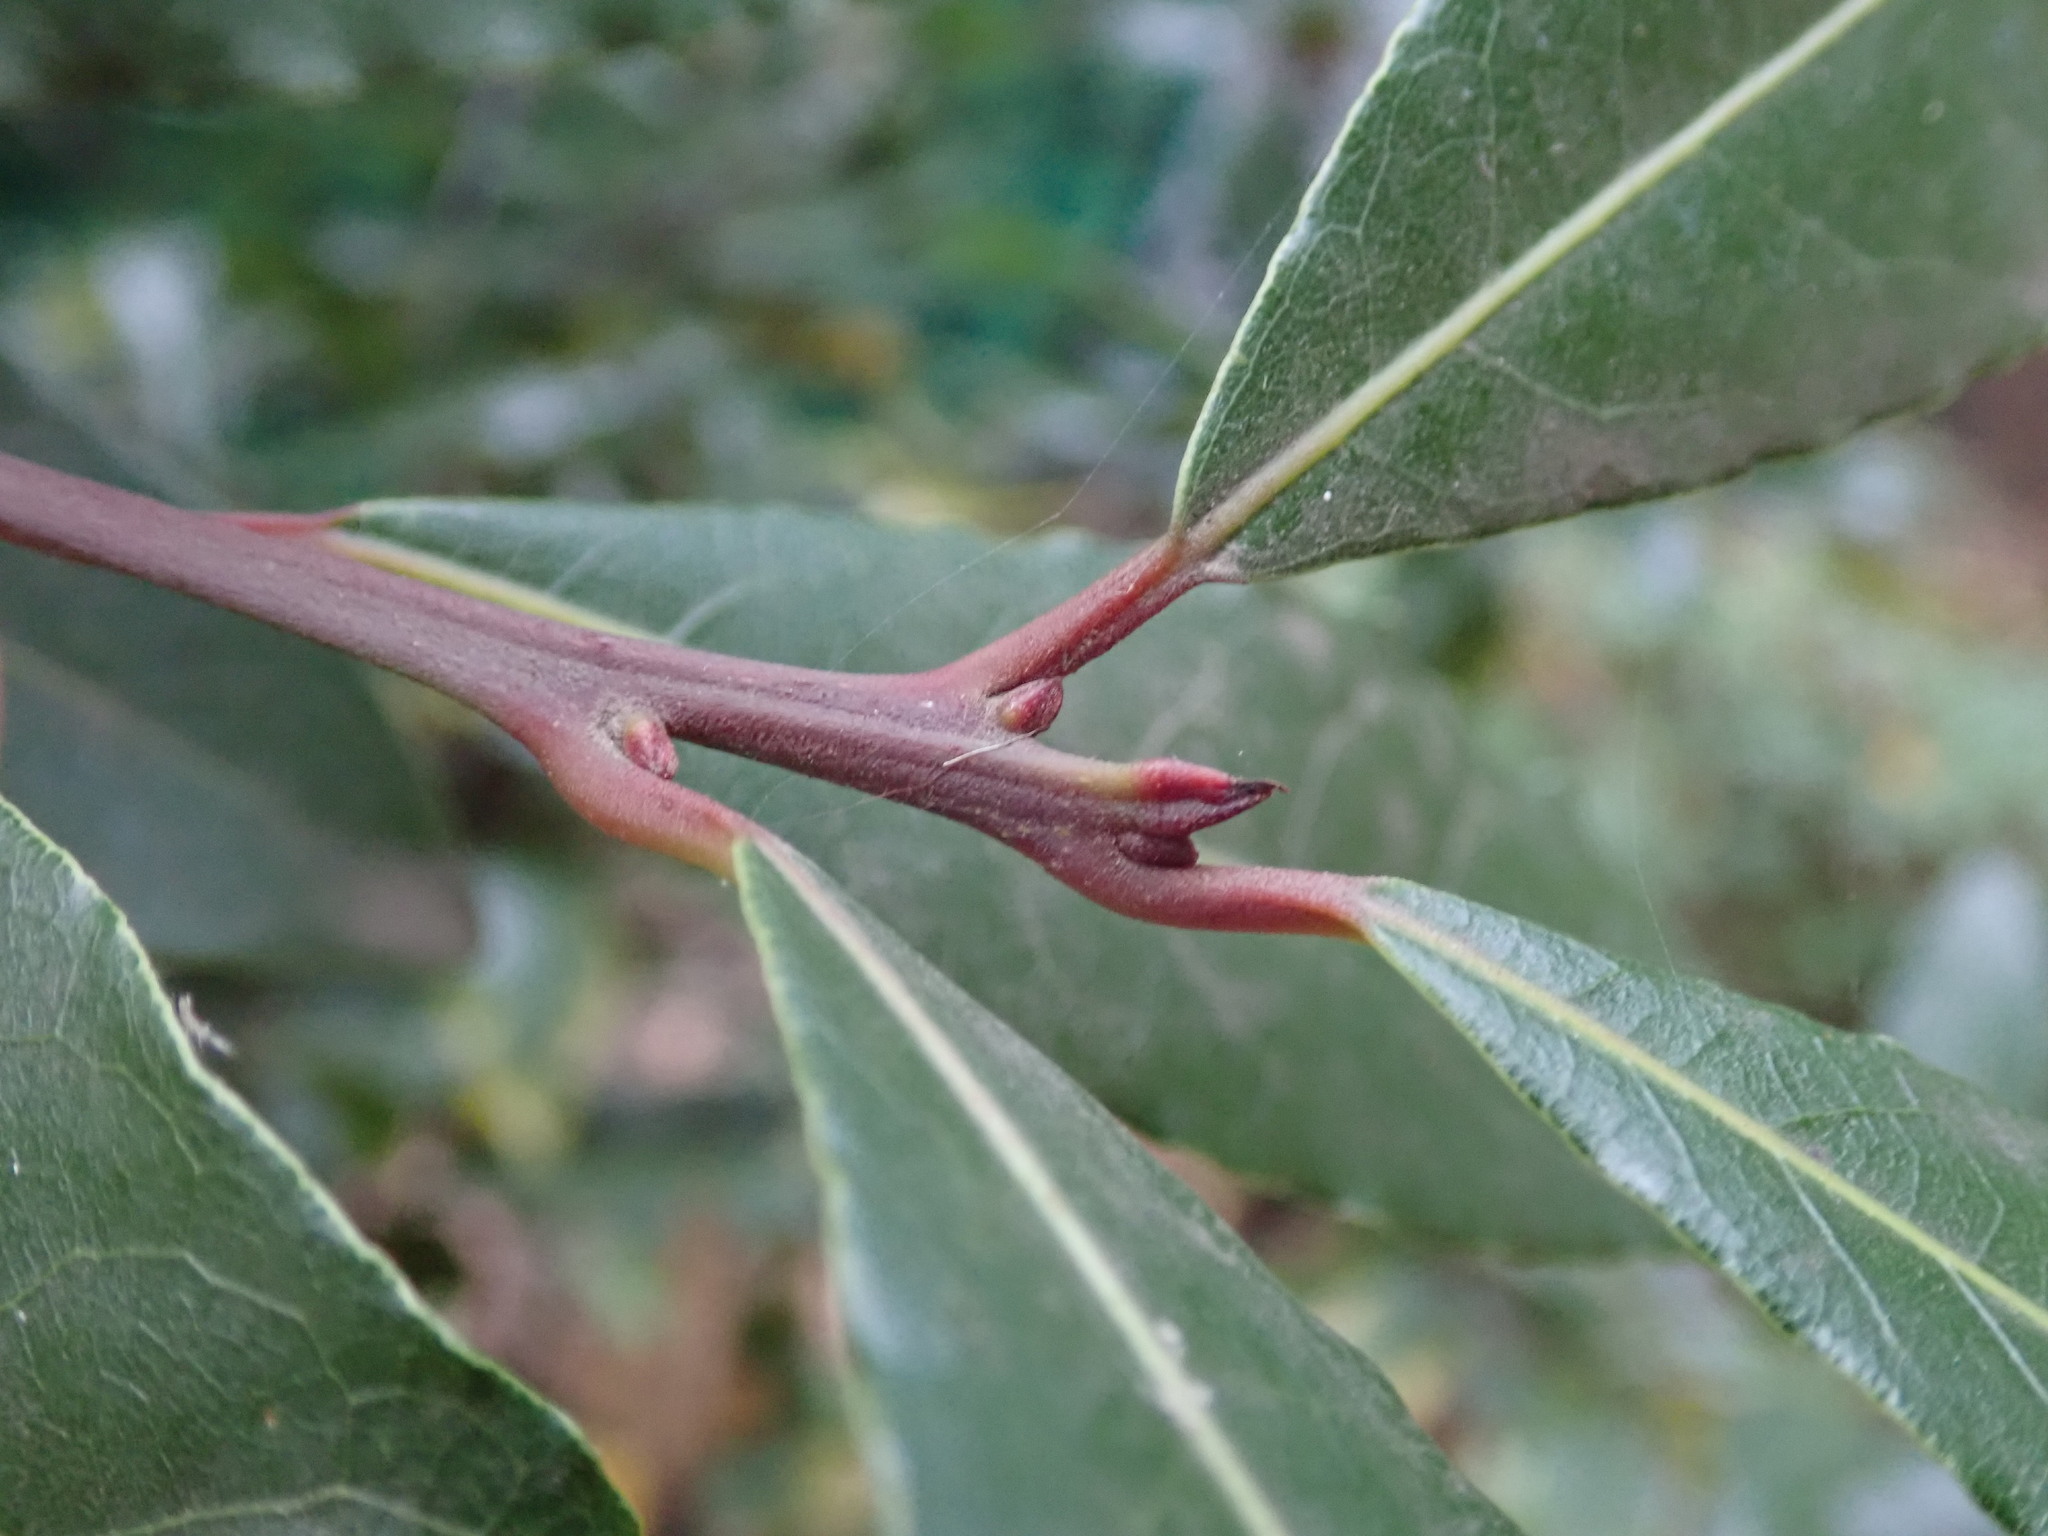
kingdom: Plantae
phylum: Tracheophyta
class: Magnoliopsida
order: Laurales
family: Lauraceae
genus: Laurus
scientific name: Laurus nobilis
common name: Bay
